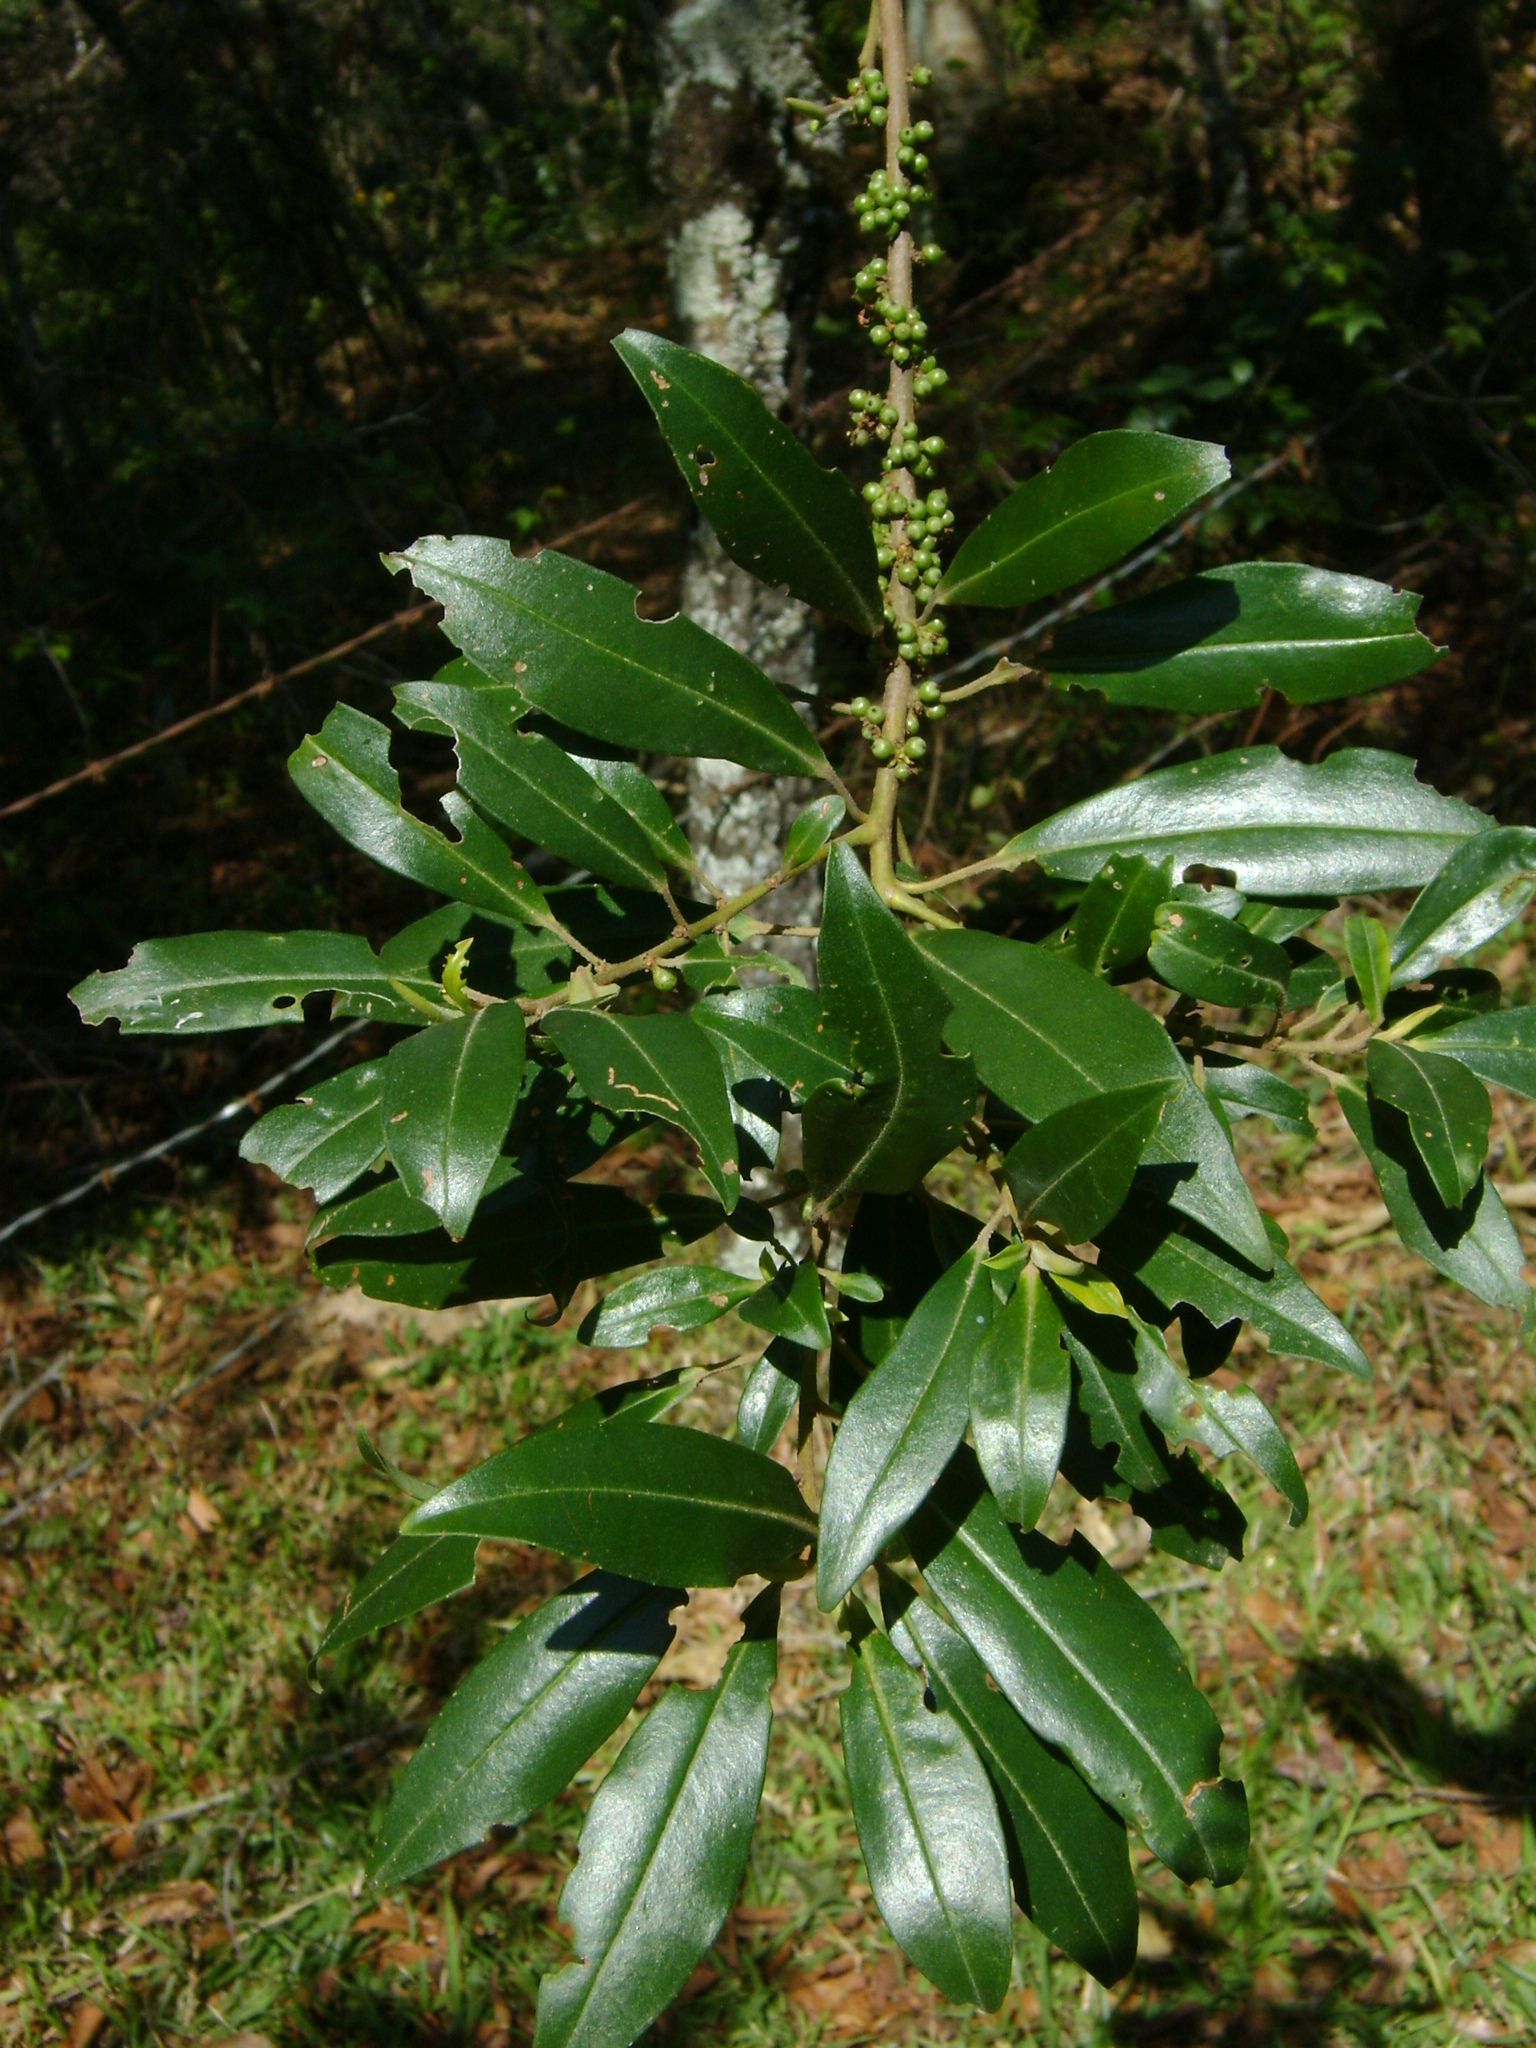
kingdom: Plantae
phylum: Tracheophyta
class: Magnoliopsida
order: Ericales
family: Primulaceae
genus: Myrsine
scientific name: Myrsine coriacea
